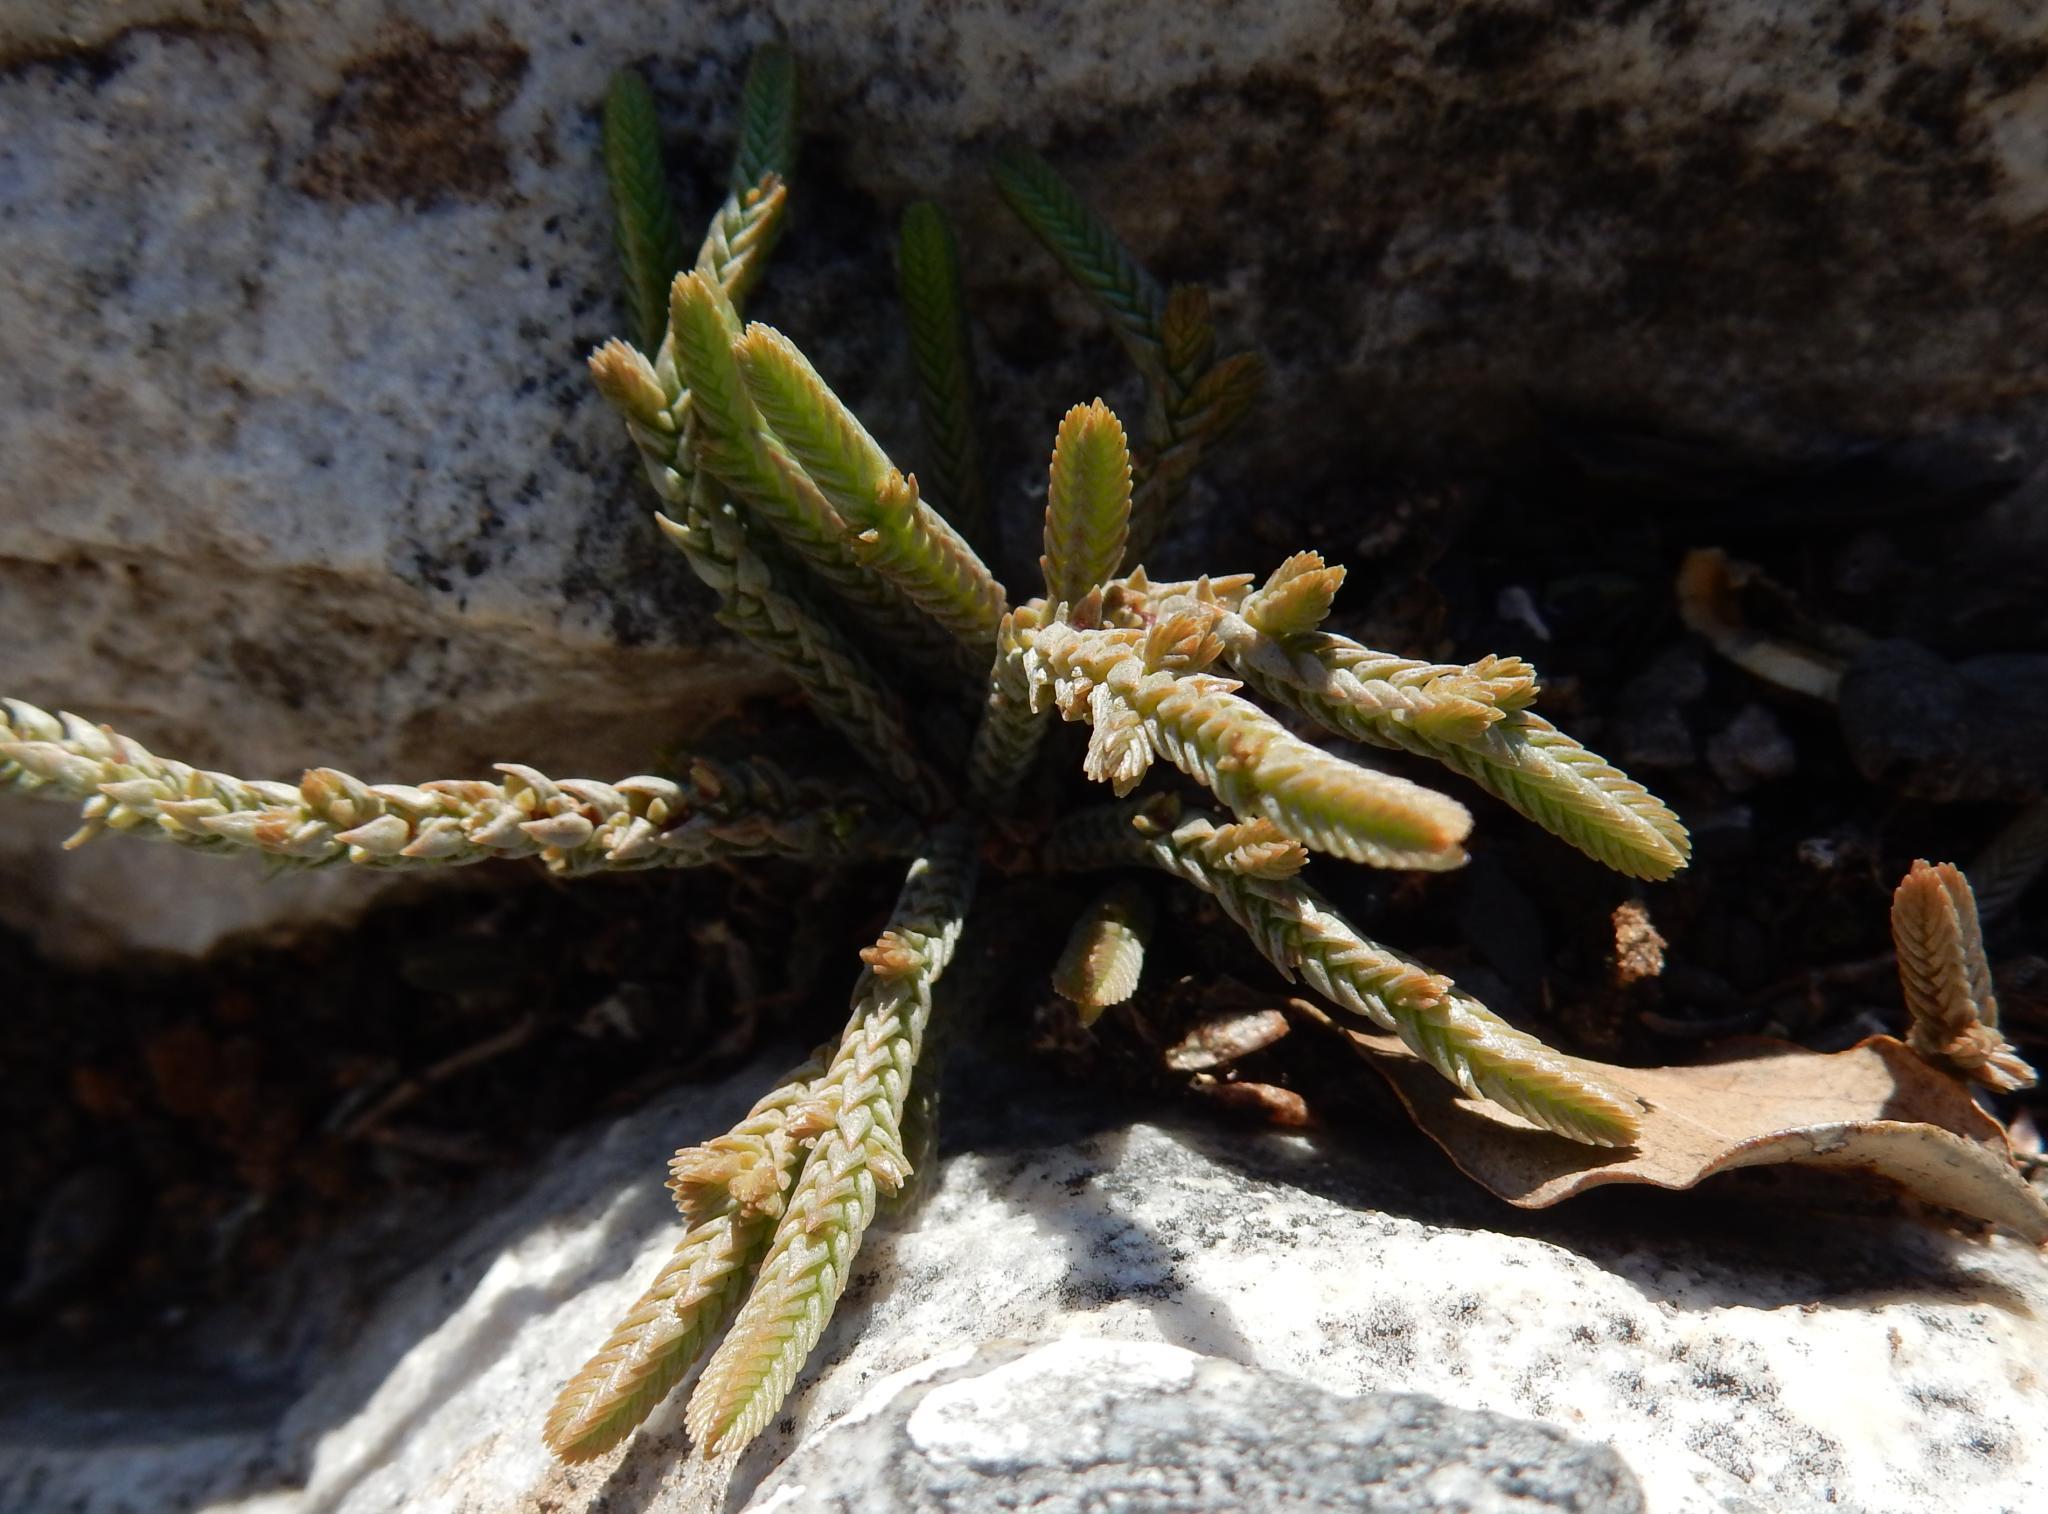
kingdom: Plantae
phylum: Tracheophyta
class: Magnoliopsida
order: Saxifragales
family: Crassulaceae
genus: Crassula
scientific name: Crassula muscosa
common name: Toy-cypress
